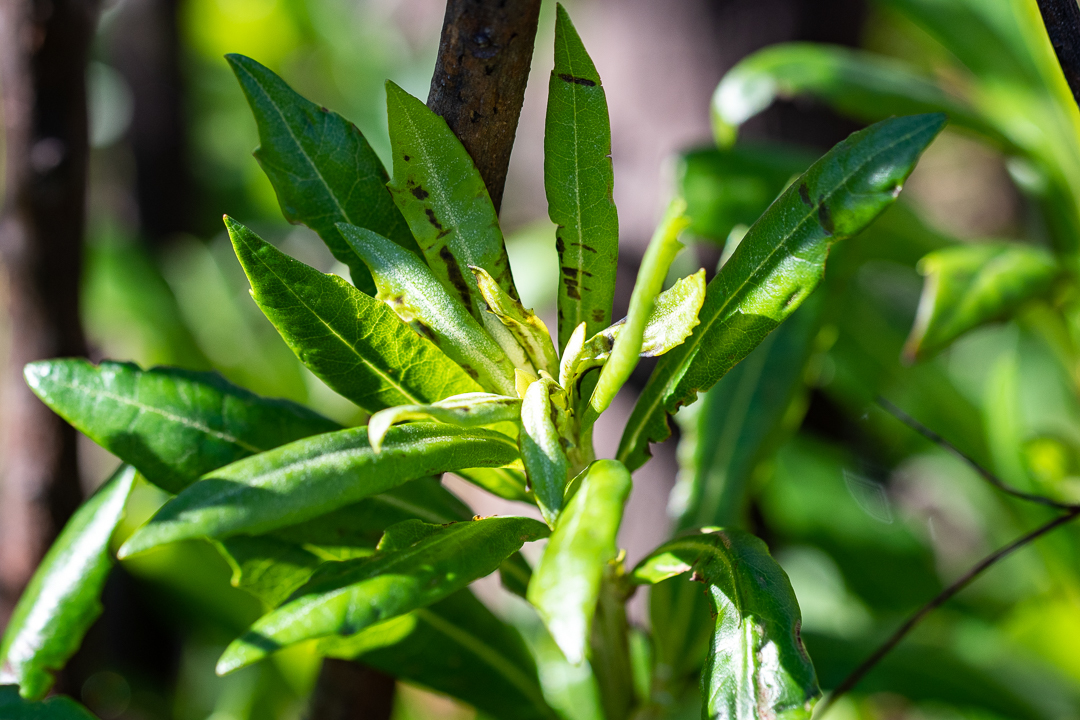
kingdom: Plantae
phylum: Tracheophyta
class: Magnoliopsida
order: Asterales
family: Asteraceae
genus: Brachylaena
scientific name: Brachylaena neriifolia
